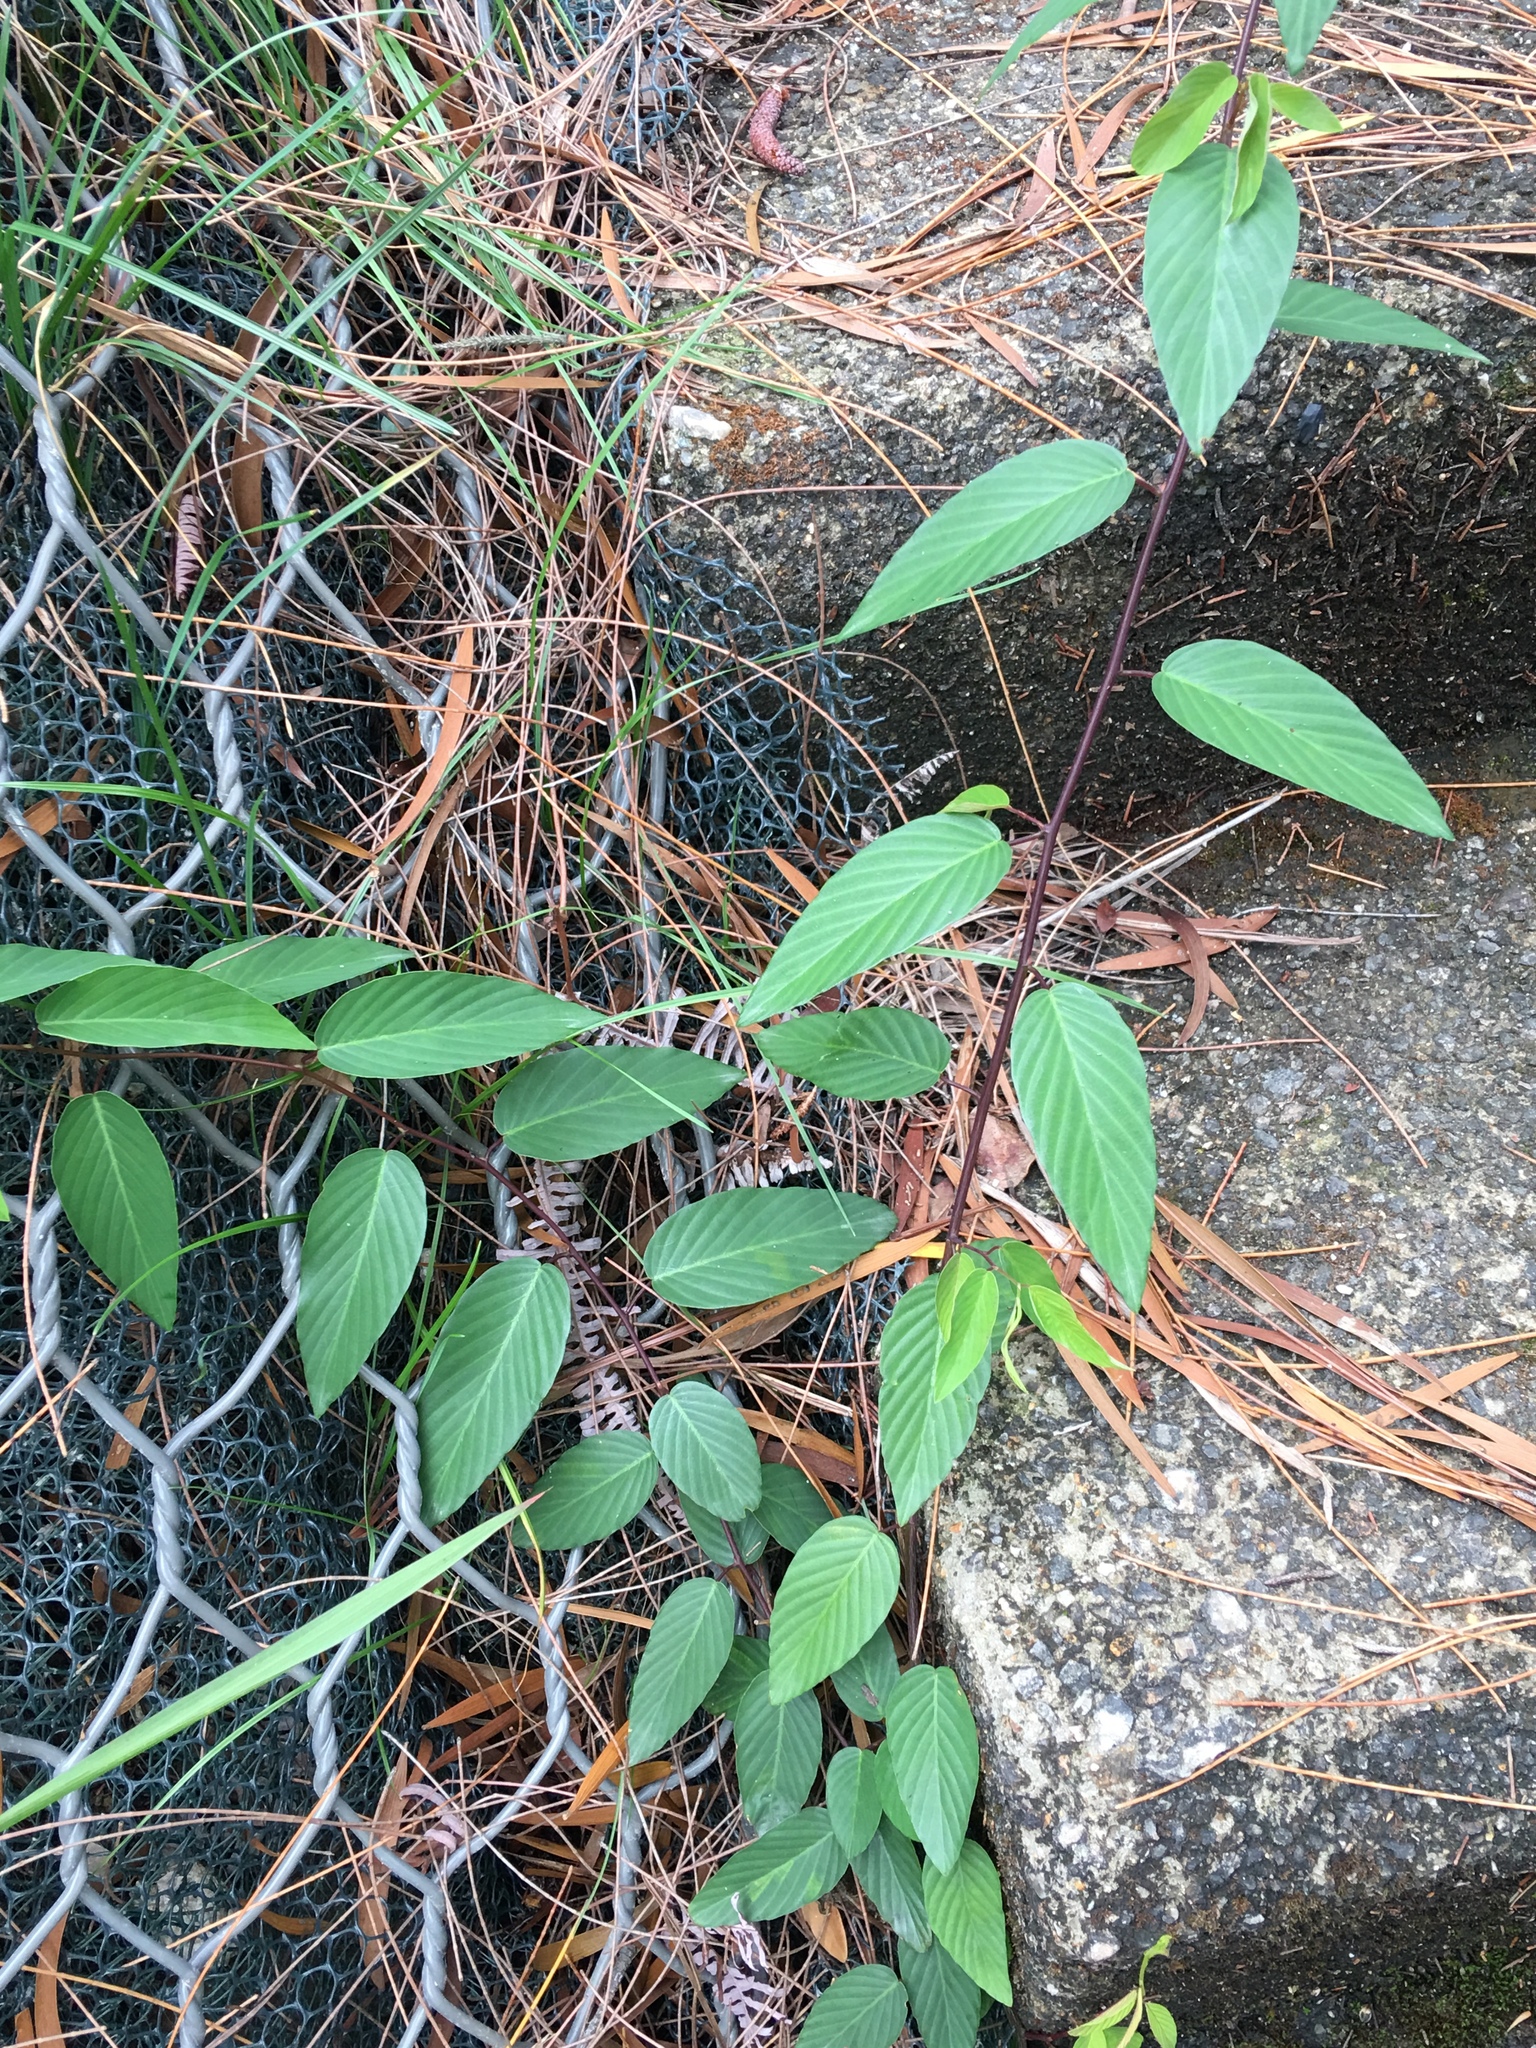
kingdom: Plantae
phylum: Tracheophyta
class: Magnoliopsida
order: Rosales
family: Rhamnaceae
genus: Berchemia
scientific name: Berchemia floribunda
